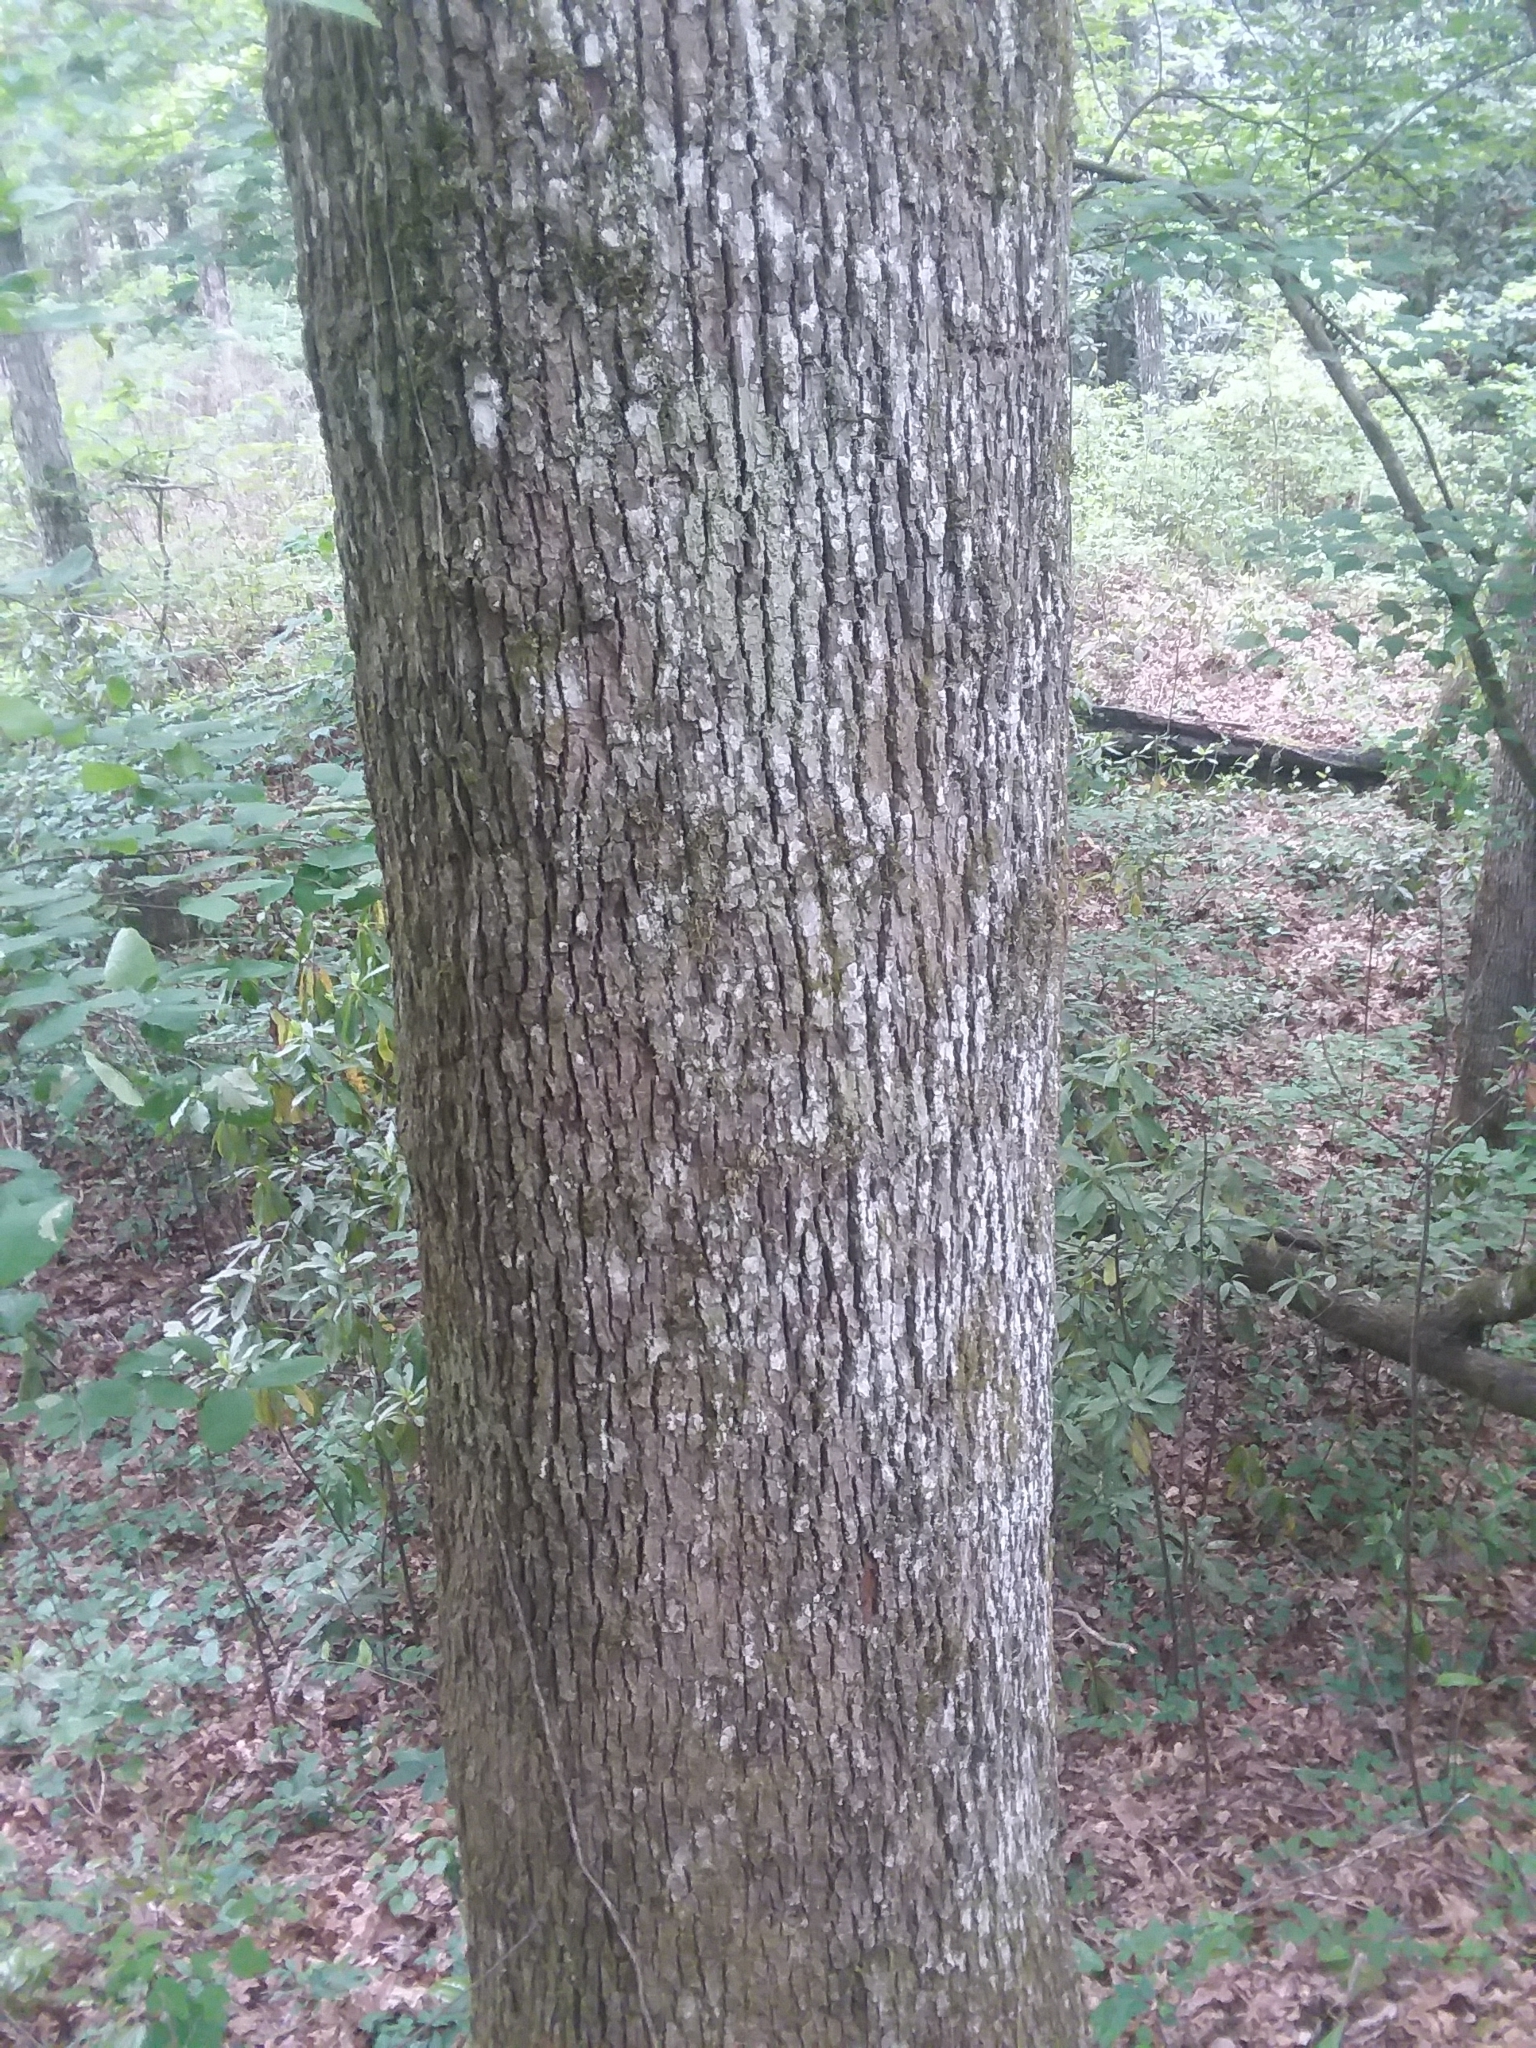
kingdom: Plantae
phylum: Tracheophyta
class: Magnoliopsida
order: Magnoliales
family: Magnoliaceae
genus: Magnolia
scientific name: Magnolia acuminata
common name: Cucumber magnolia
